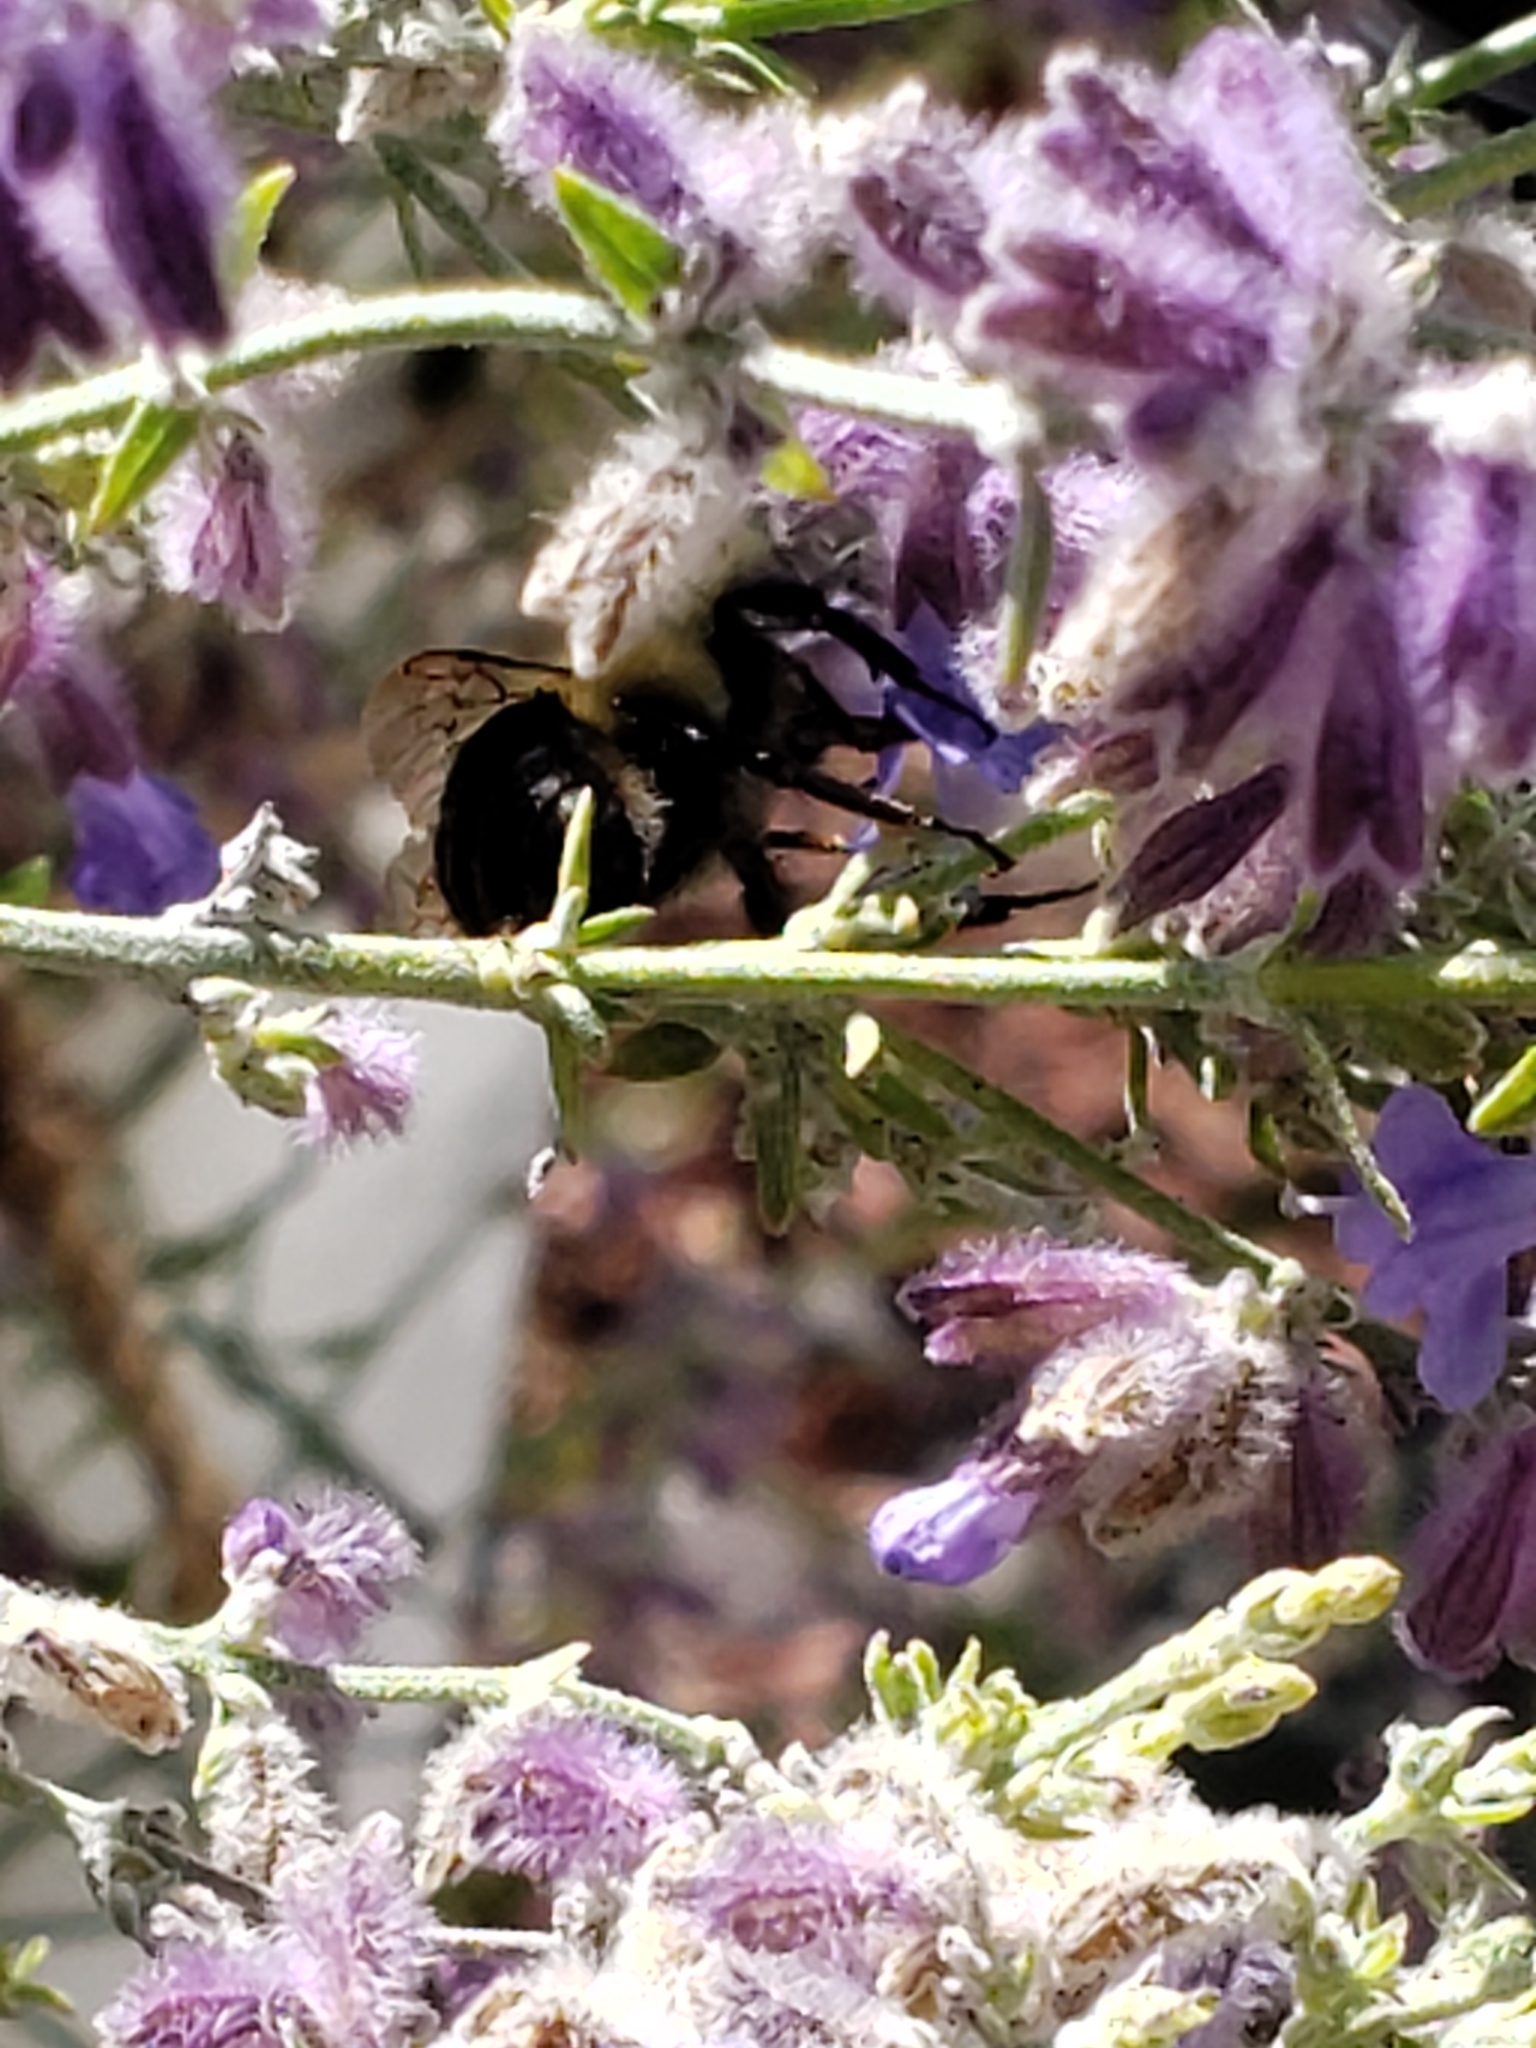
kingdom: Animalia
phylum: Arthropoda
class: Insecta
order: Hymenoptera
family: Apidae
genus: Bombus
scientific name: Bombus impatiens
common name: Common eastern bumble bee
